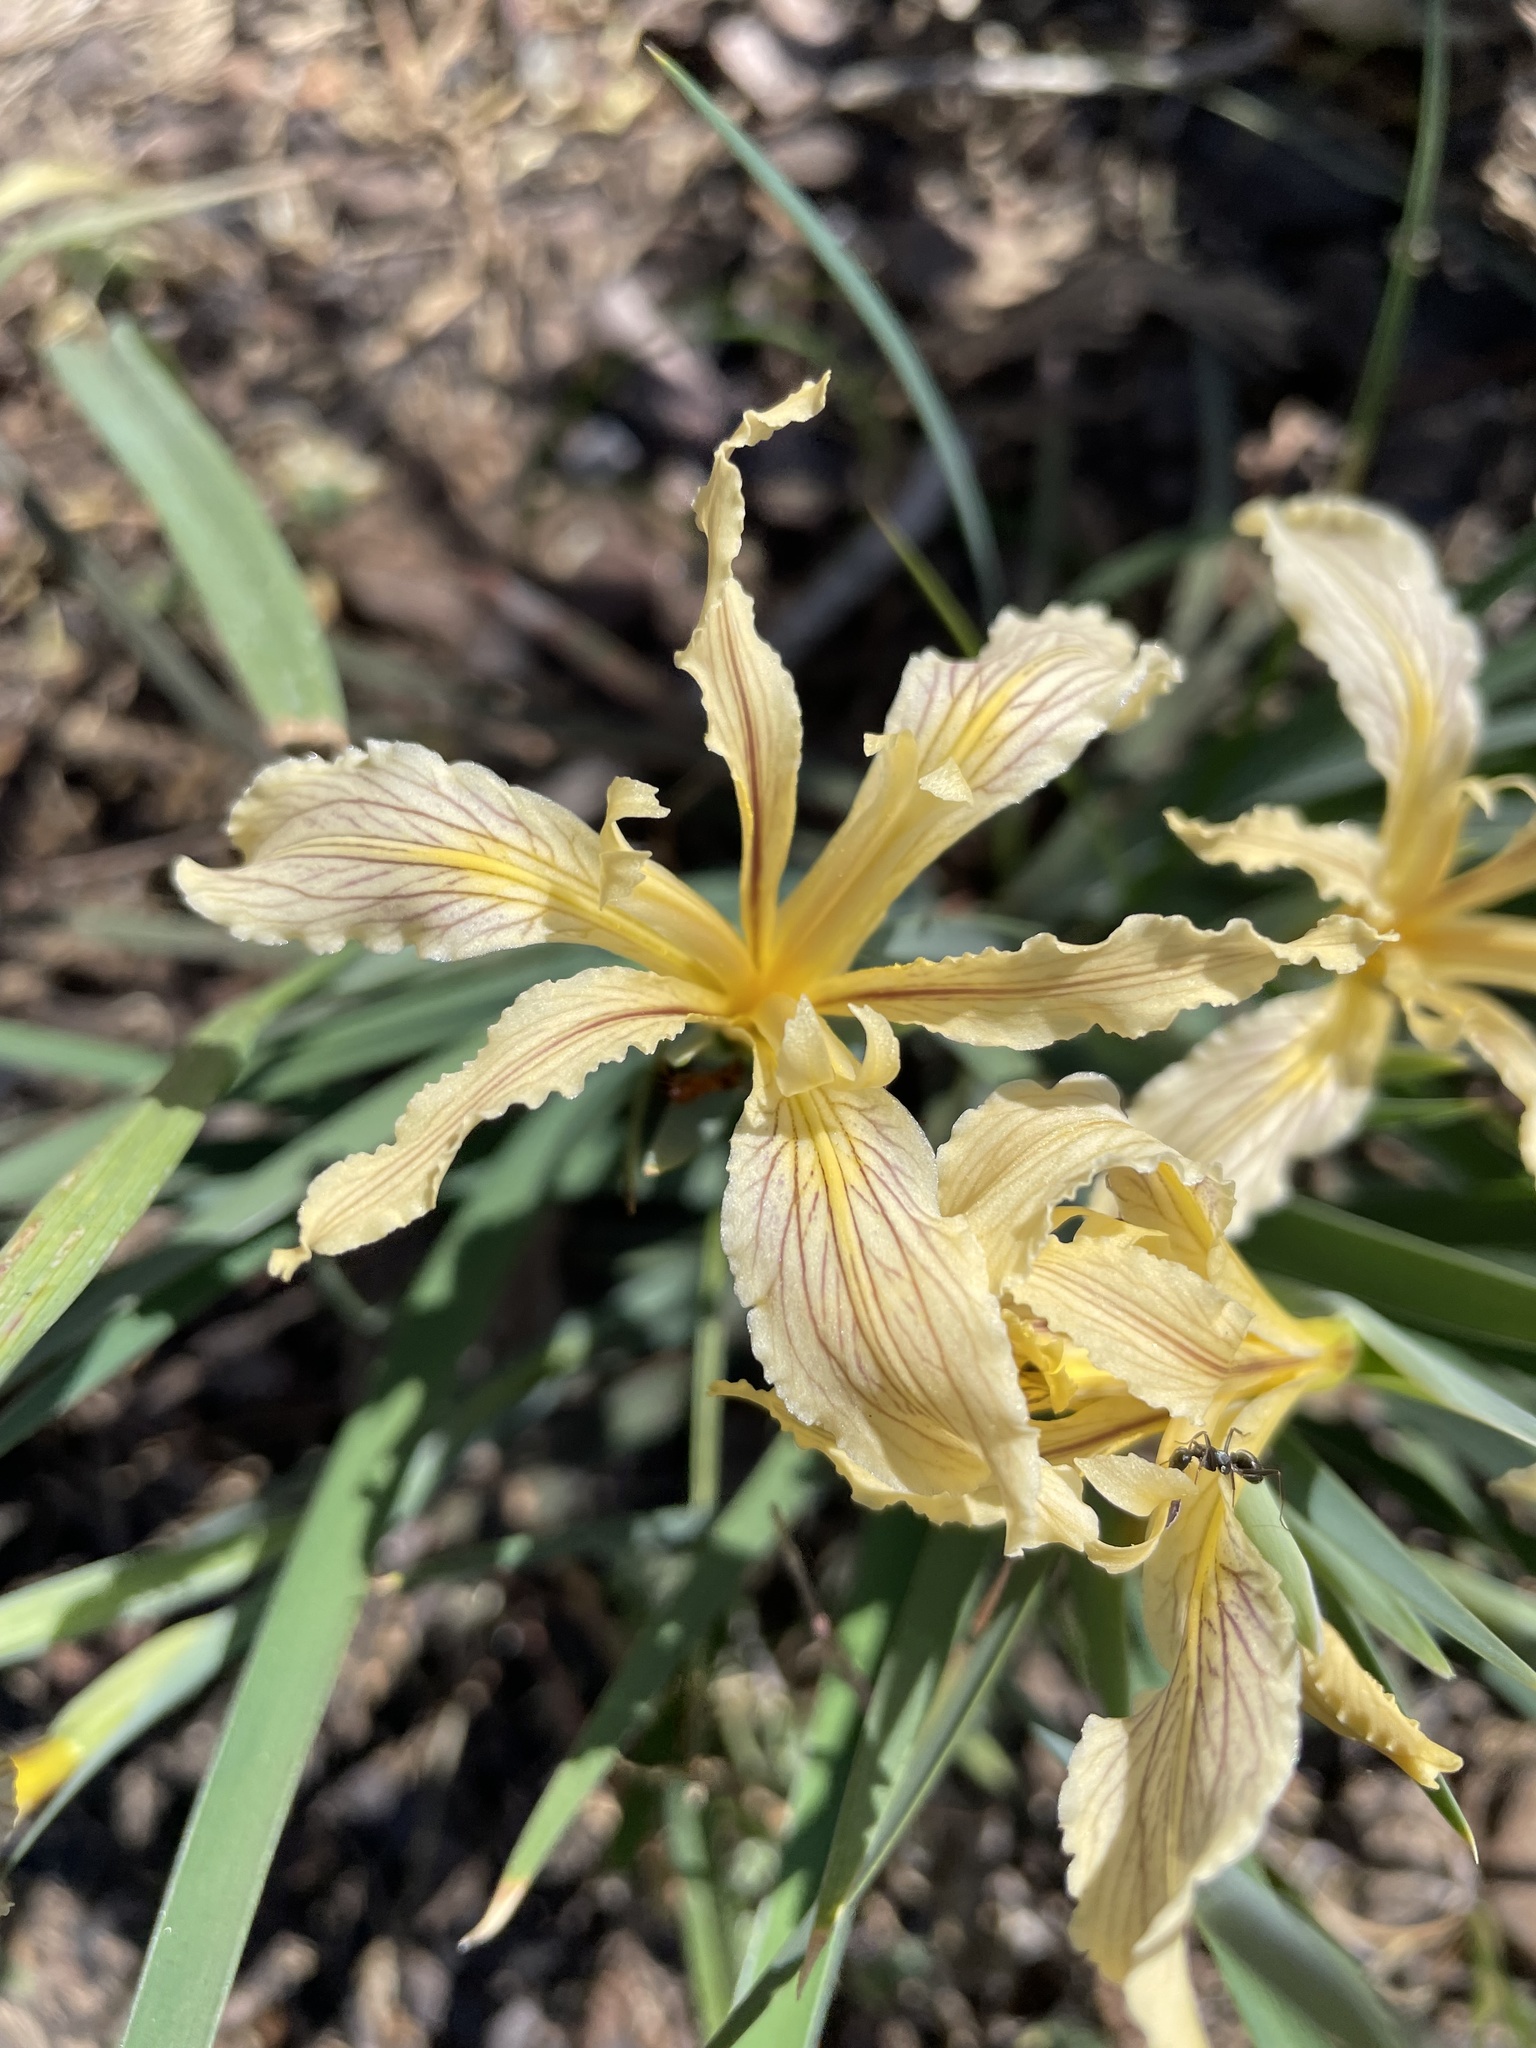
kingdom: Plantae
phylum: Tracheophyta
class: Liliopsida
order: Asparagales
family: Iridaceae
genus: Iris
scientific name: Iris hartwegii
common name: Sierra iris
